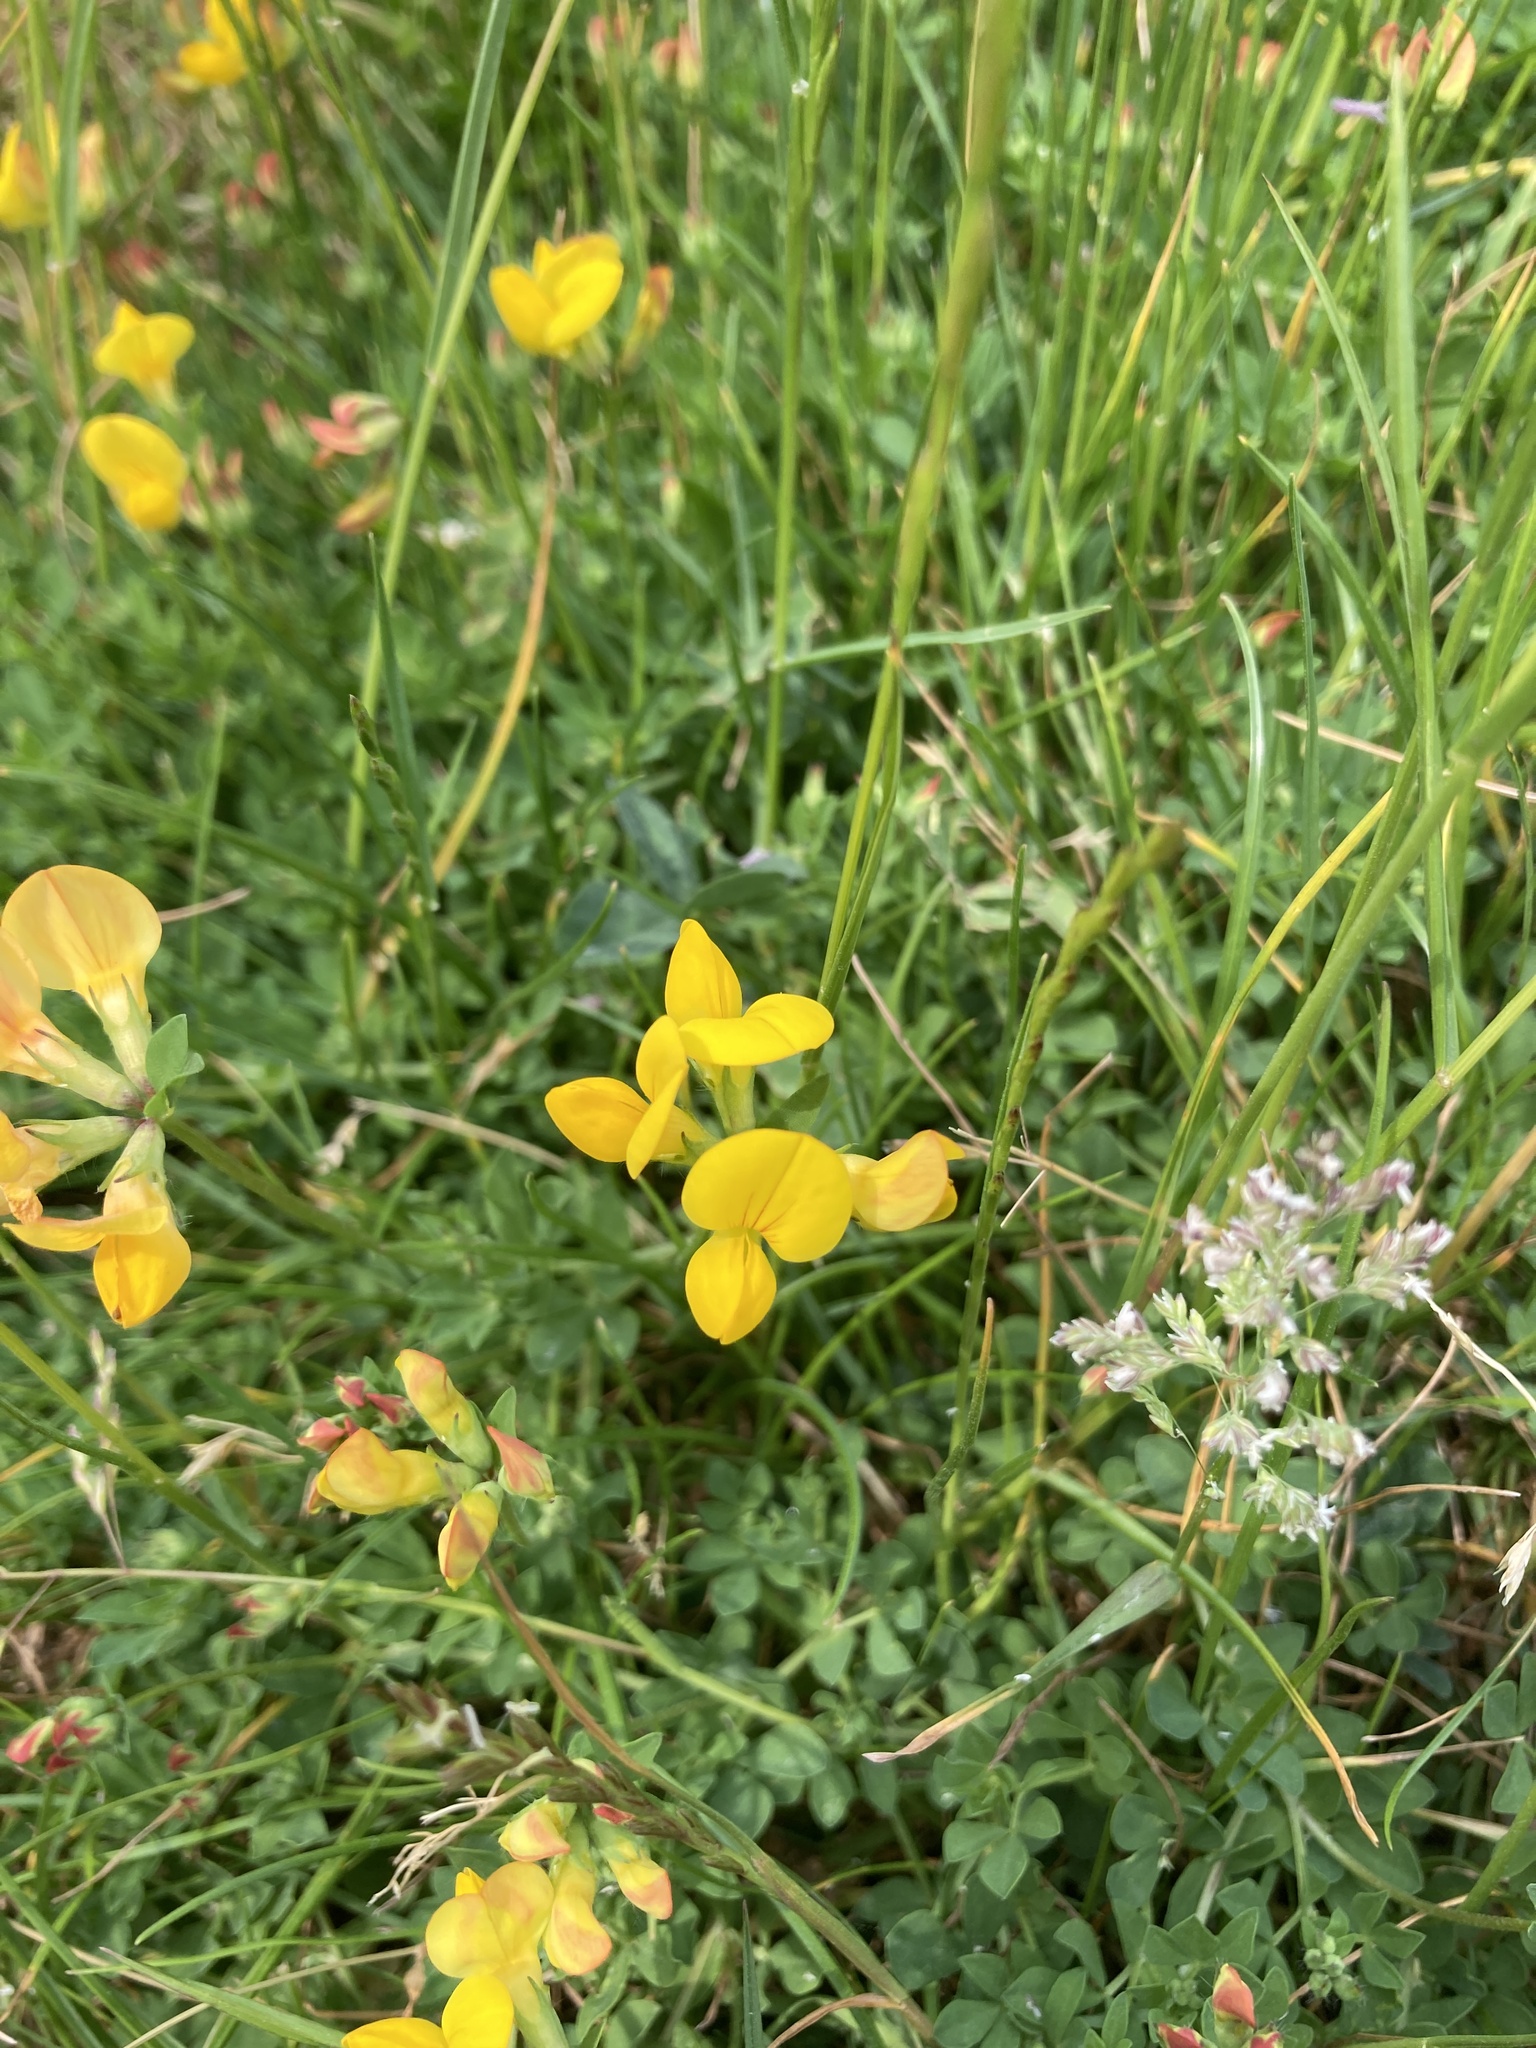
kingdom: Plantae
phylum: Tracheophyta
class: Magnoliopsida
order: Fabales
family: Fabaceae
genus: Lotus
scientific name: Lotus corniculatus
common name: Common bird's-foot-trefoil
